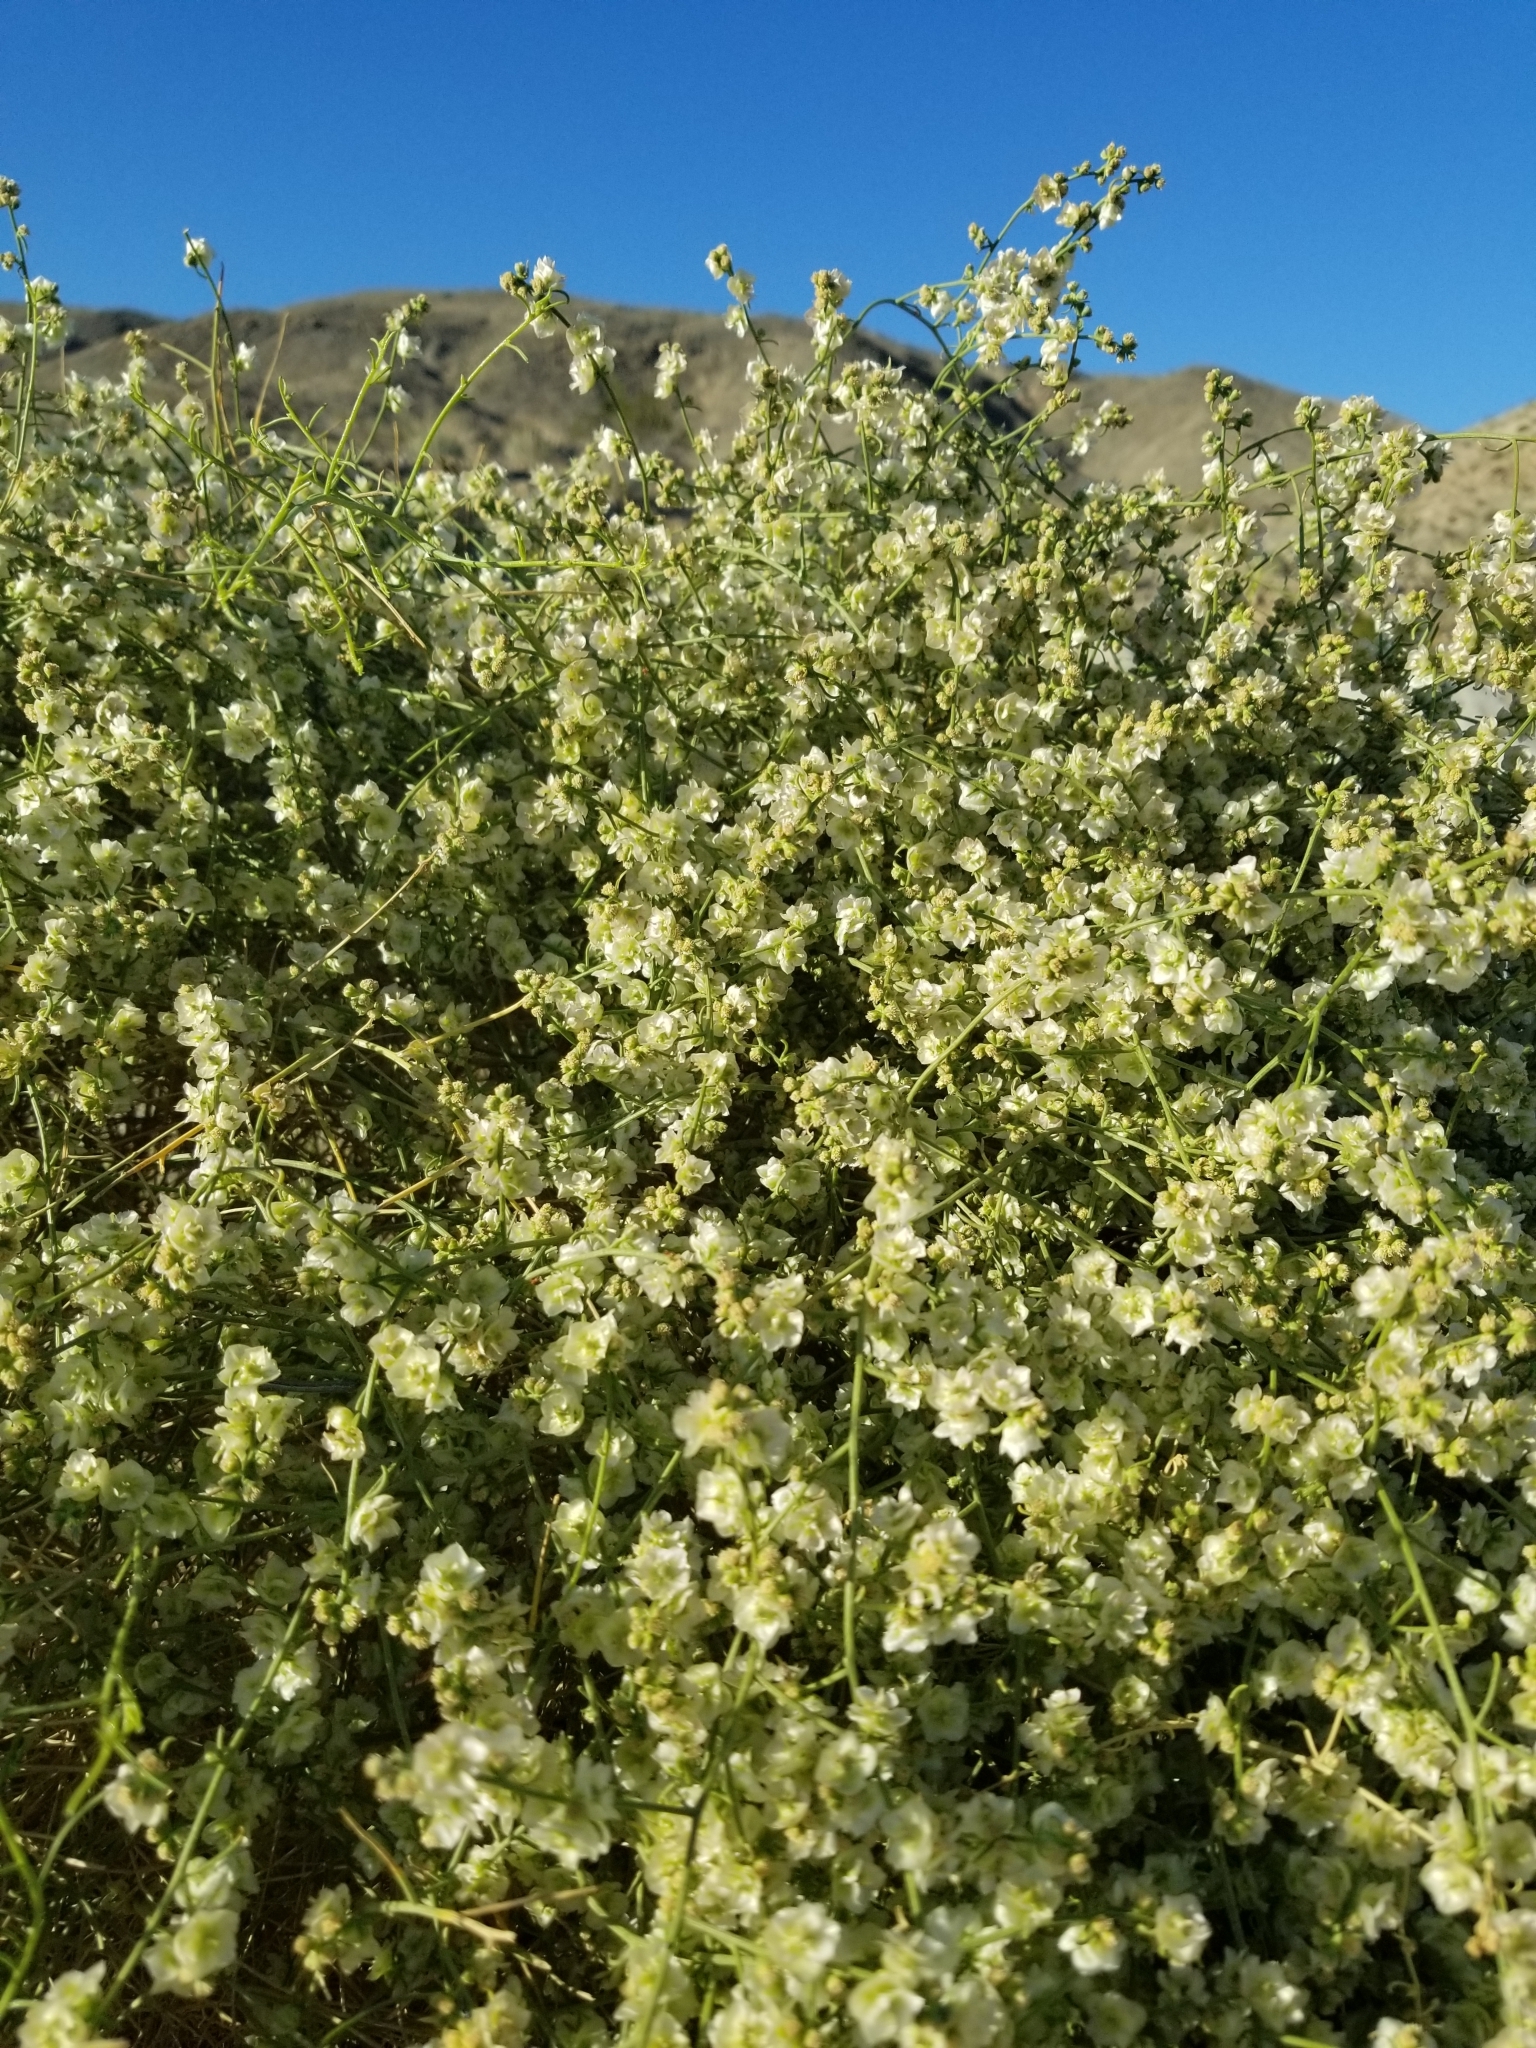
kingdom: Plantae
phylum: Tracheophyta
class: Magnoliopsida
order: Asterales
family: Asteraceae
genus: Ambrosia
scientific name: Ambrosia salsola
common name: Burrobrush
